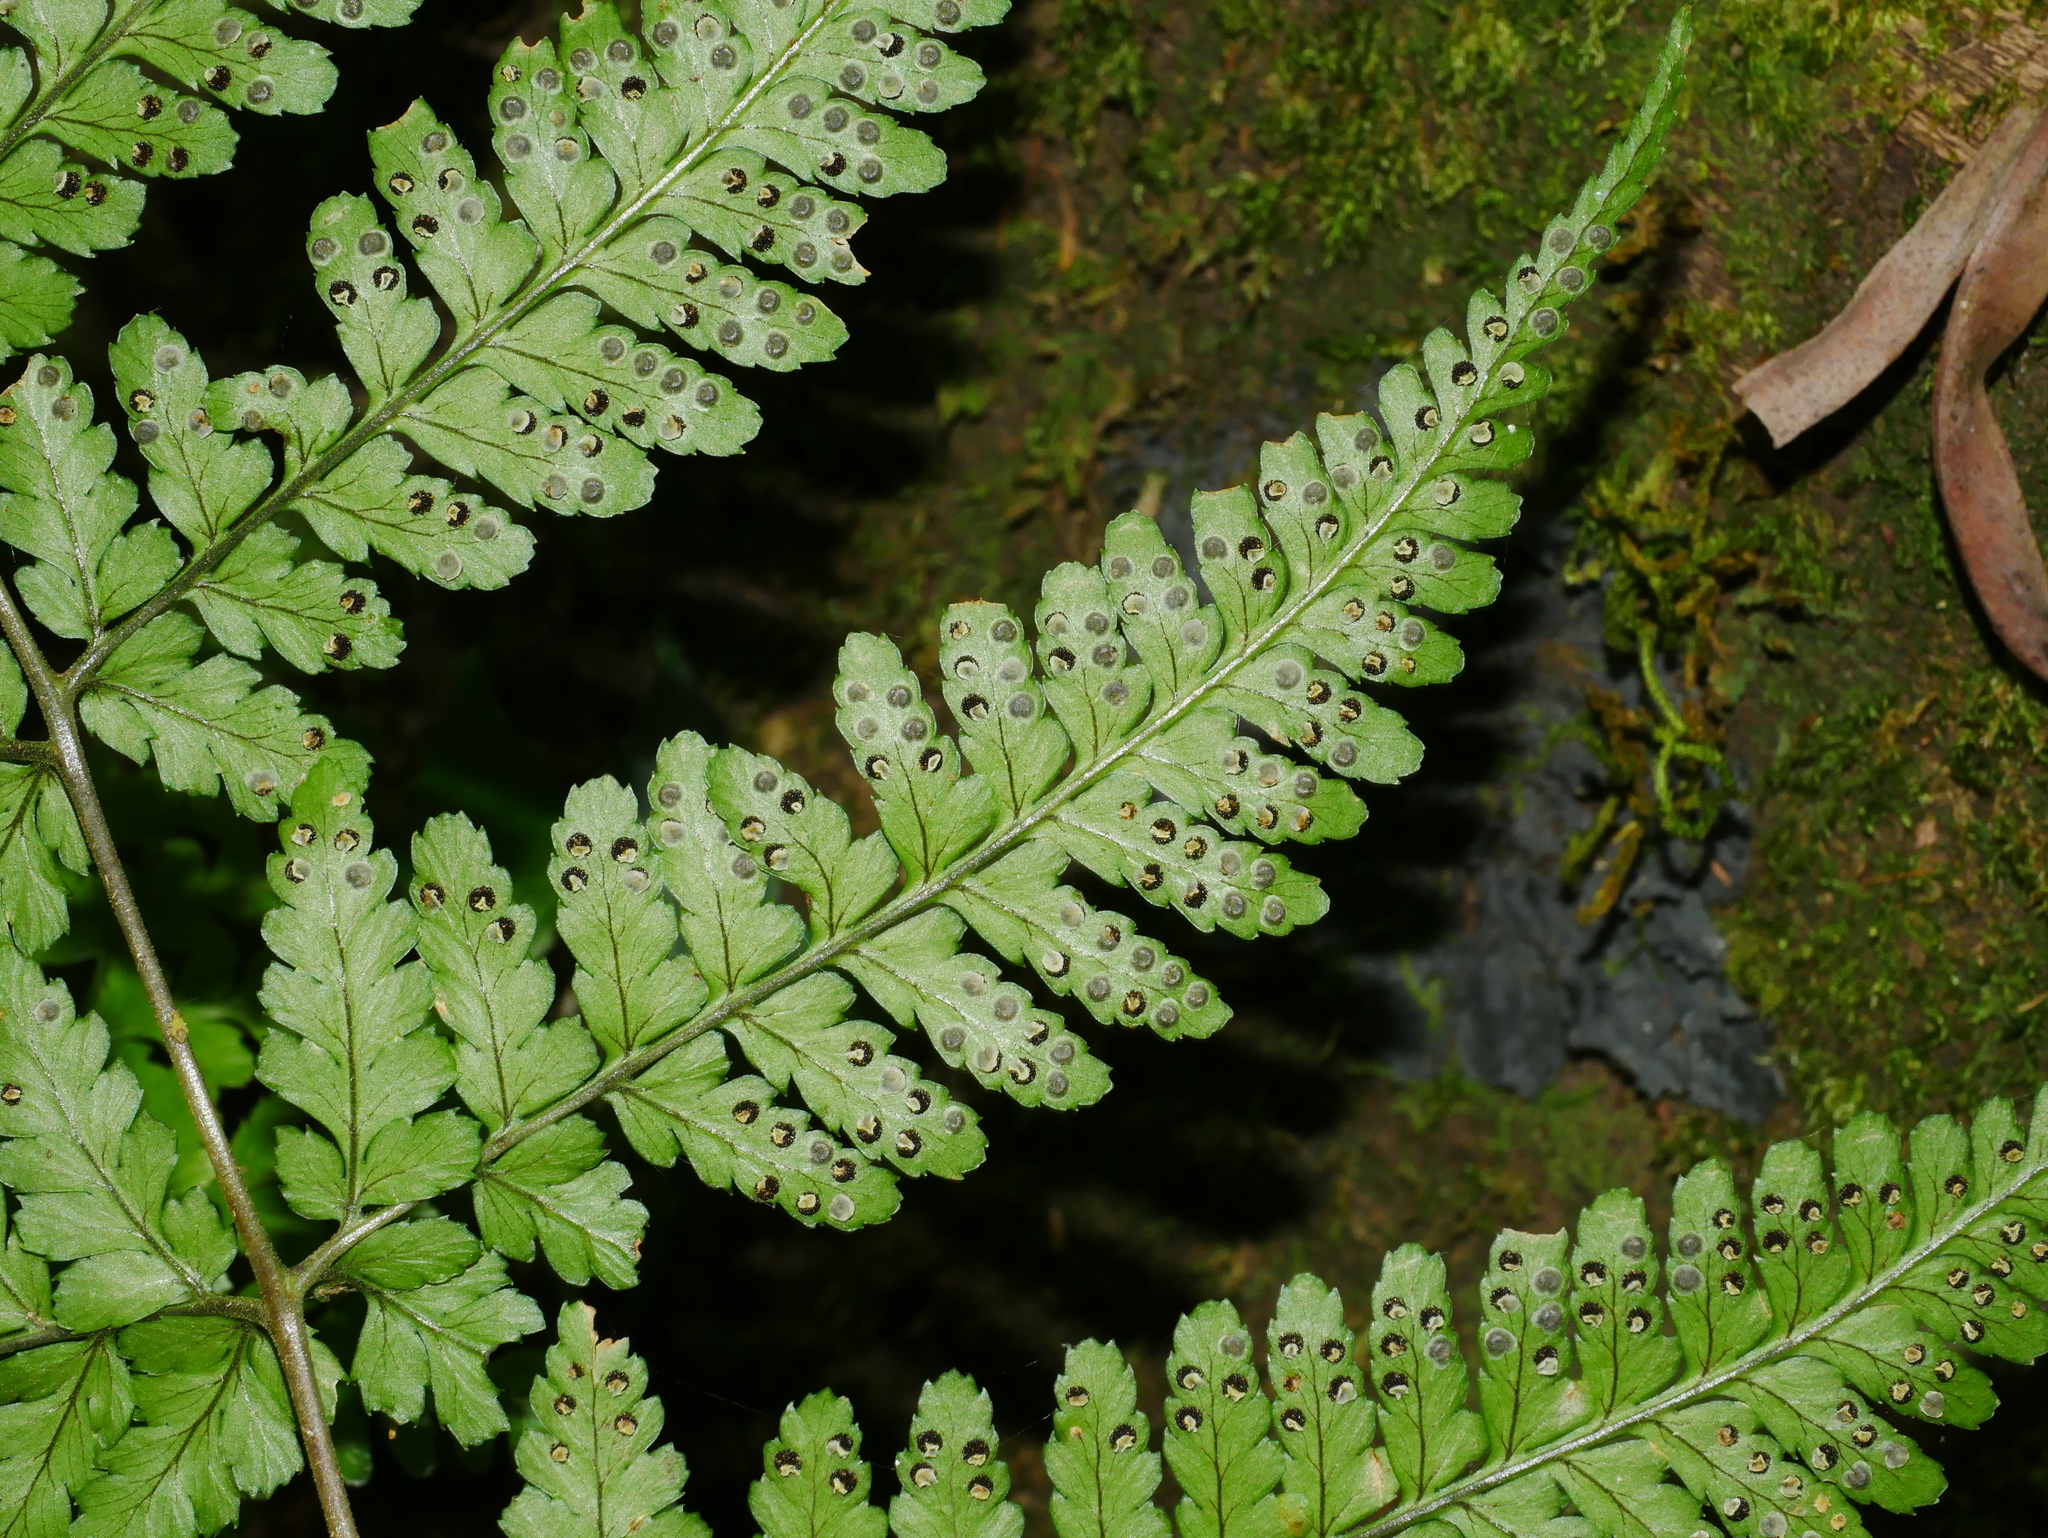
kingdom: Plantae
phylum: Tracheophyta
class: Polypodiopsida
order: Polypodiales
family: Dryopteridaceae
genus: Dryopteris
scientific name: Dryopteris melanocarpa
